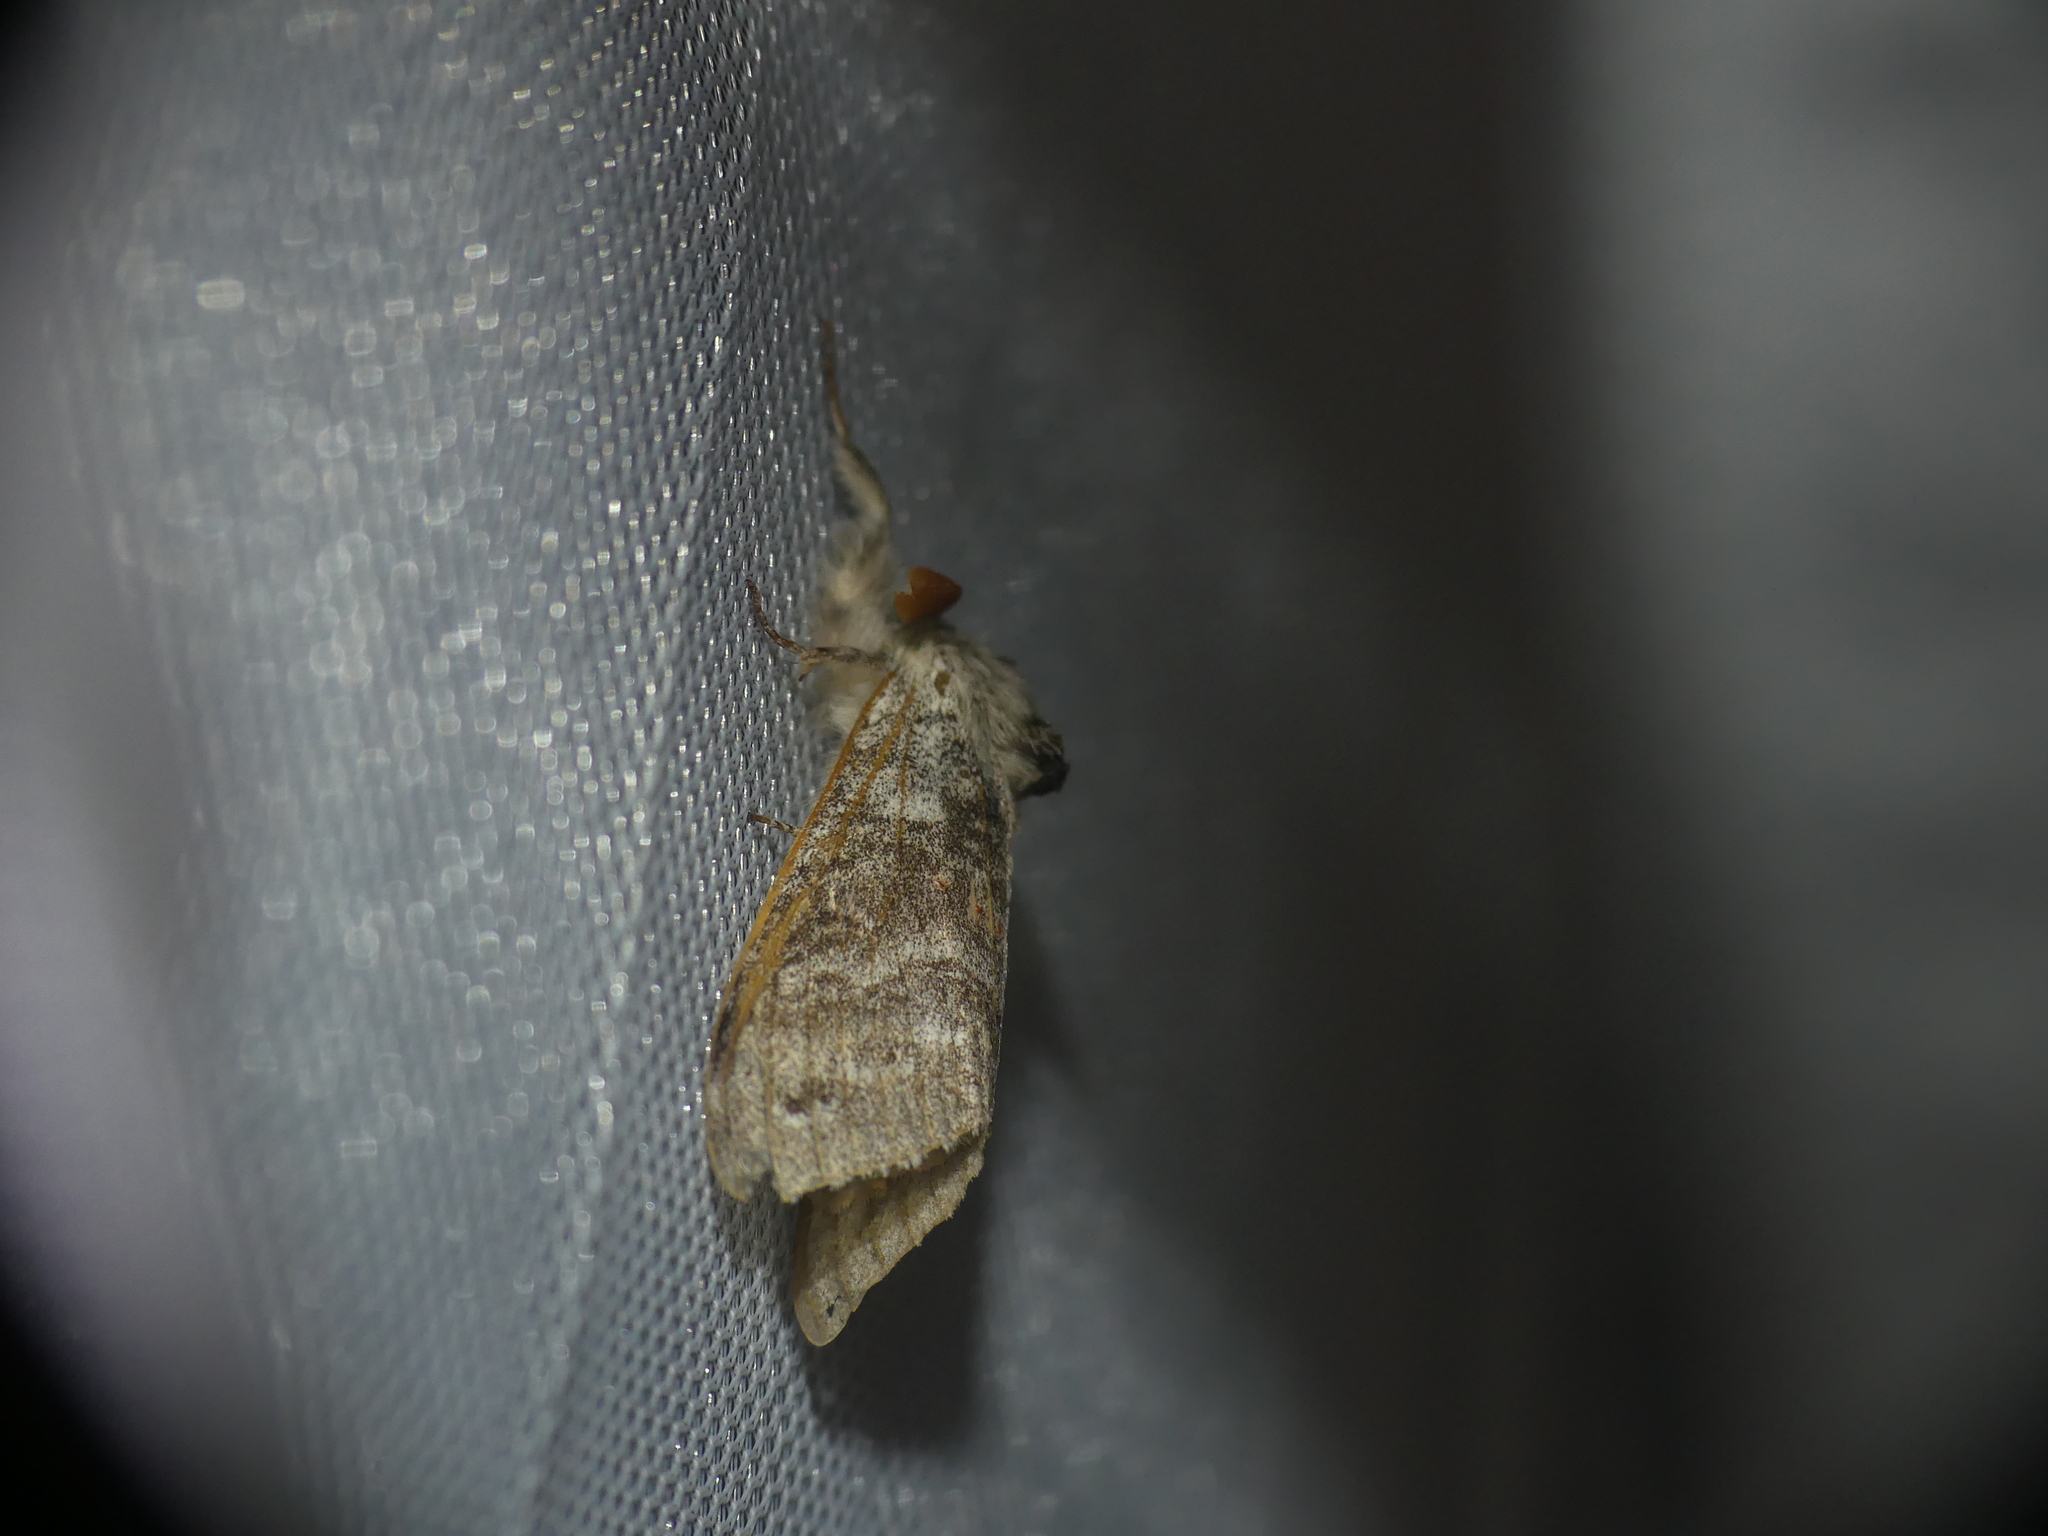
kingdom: Animalia
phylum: Arthropoda
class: Insecta
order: Lepidoptera
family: Erebidae
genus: Calliteara
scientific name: Calliteara pudibunda
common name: Pale tussock
